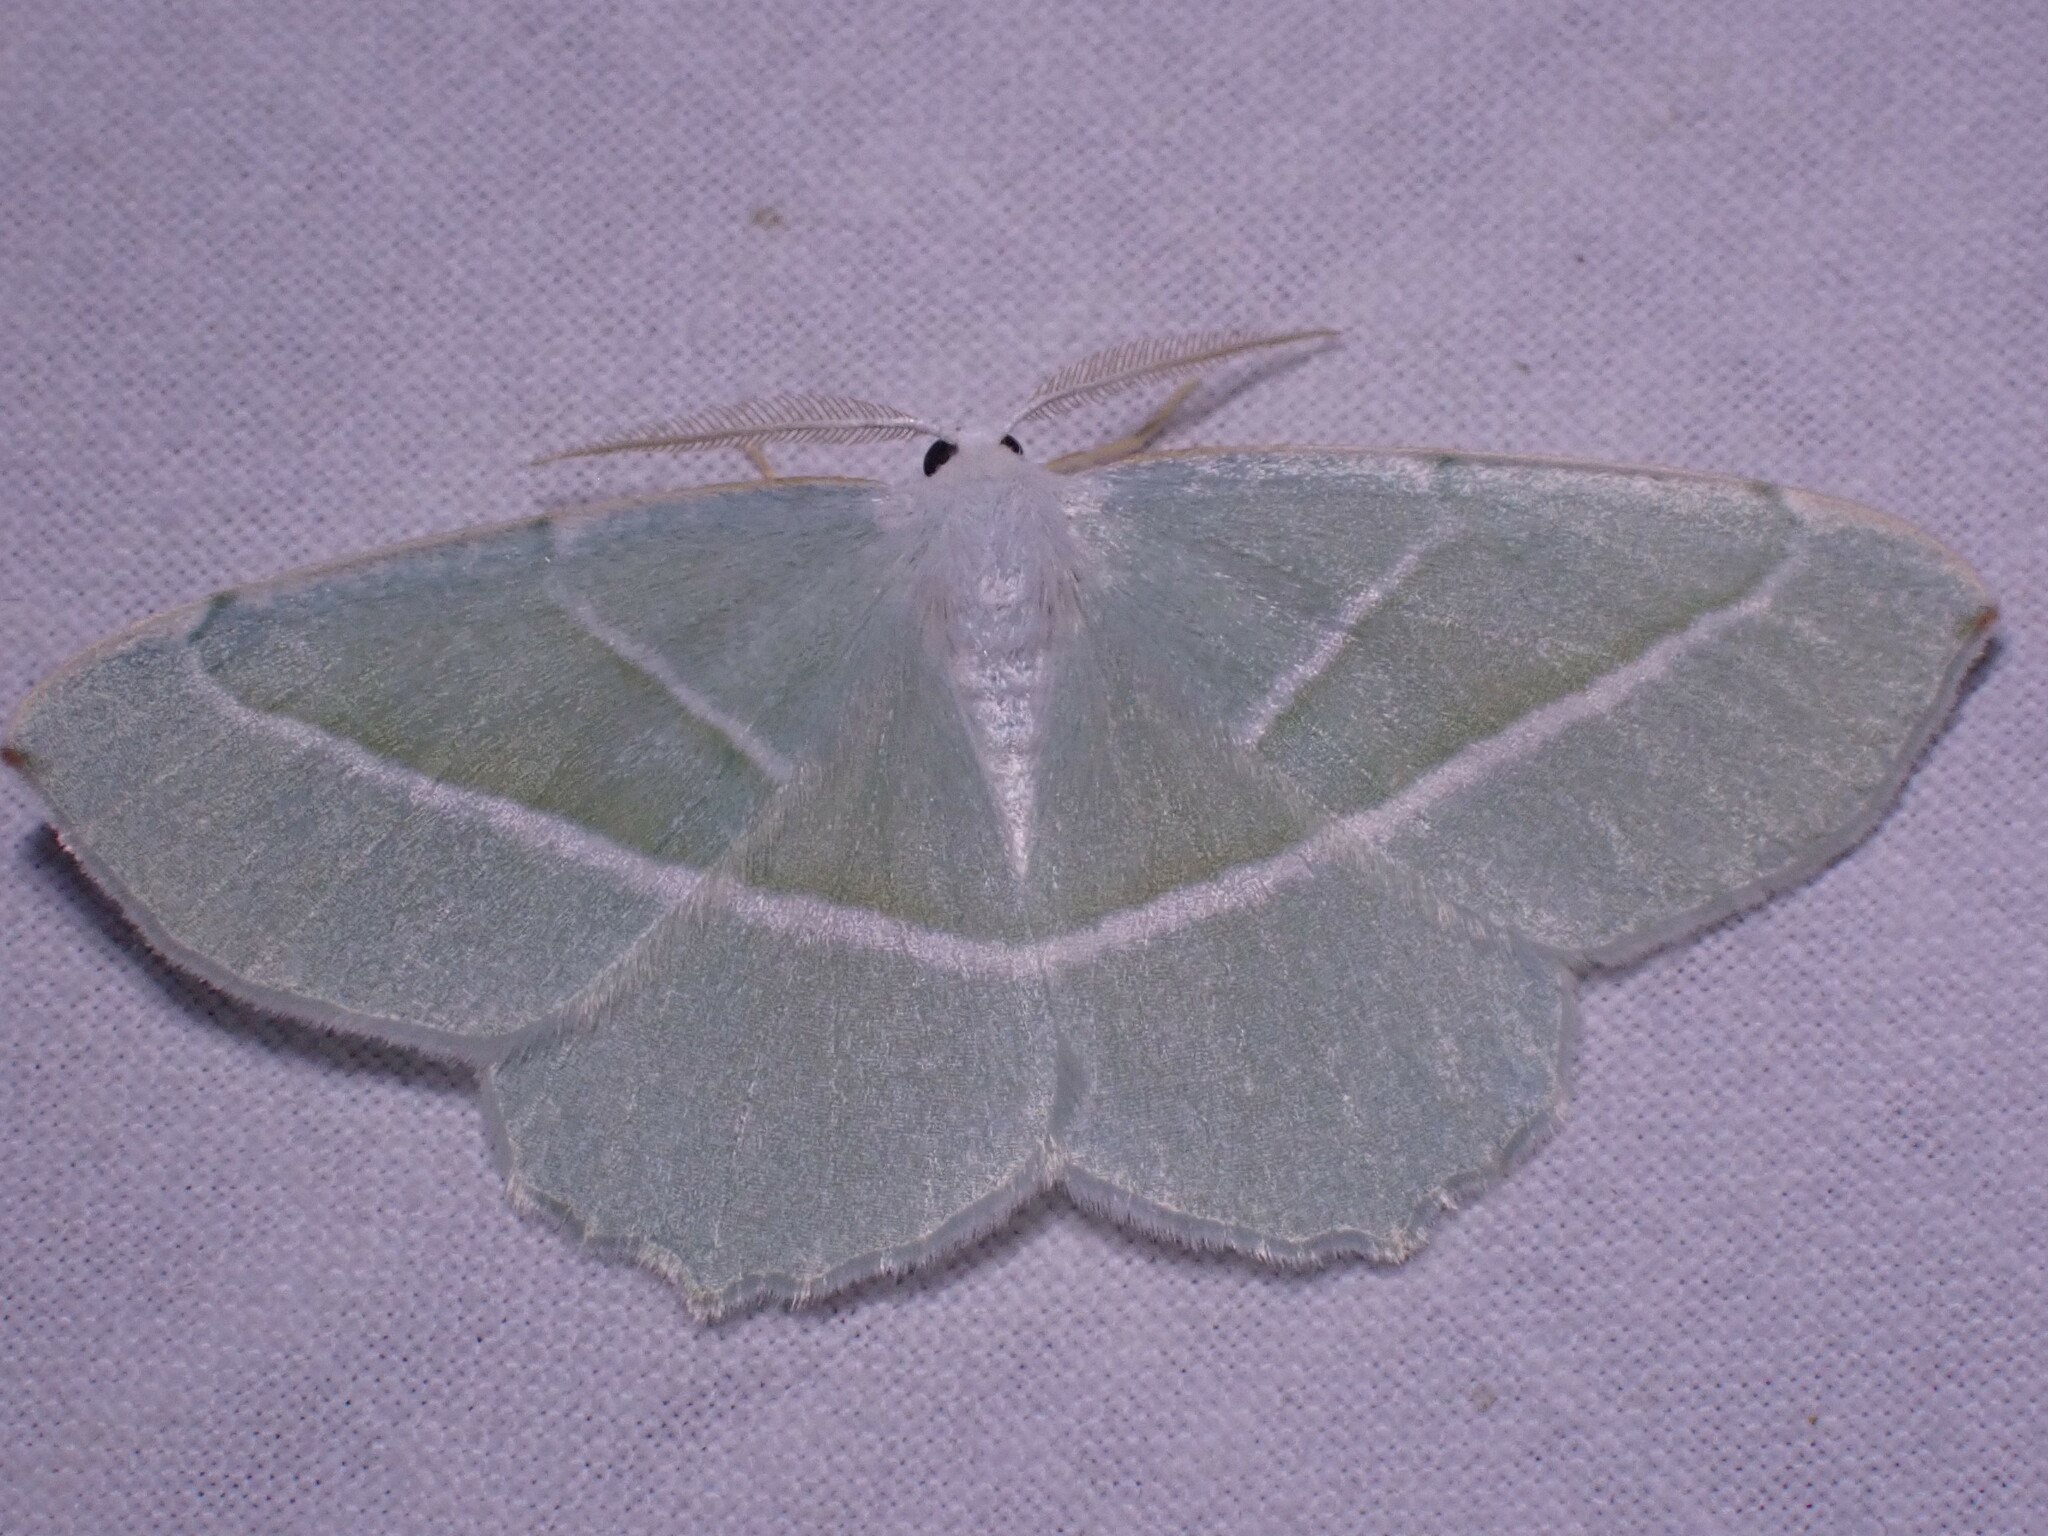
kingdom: Animalia
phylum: Arthropoda
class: Insecta
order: Lepidoptera
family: Geometridae
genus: Campaea
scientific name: Campaea margaritaria
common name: Light emerald
